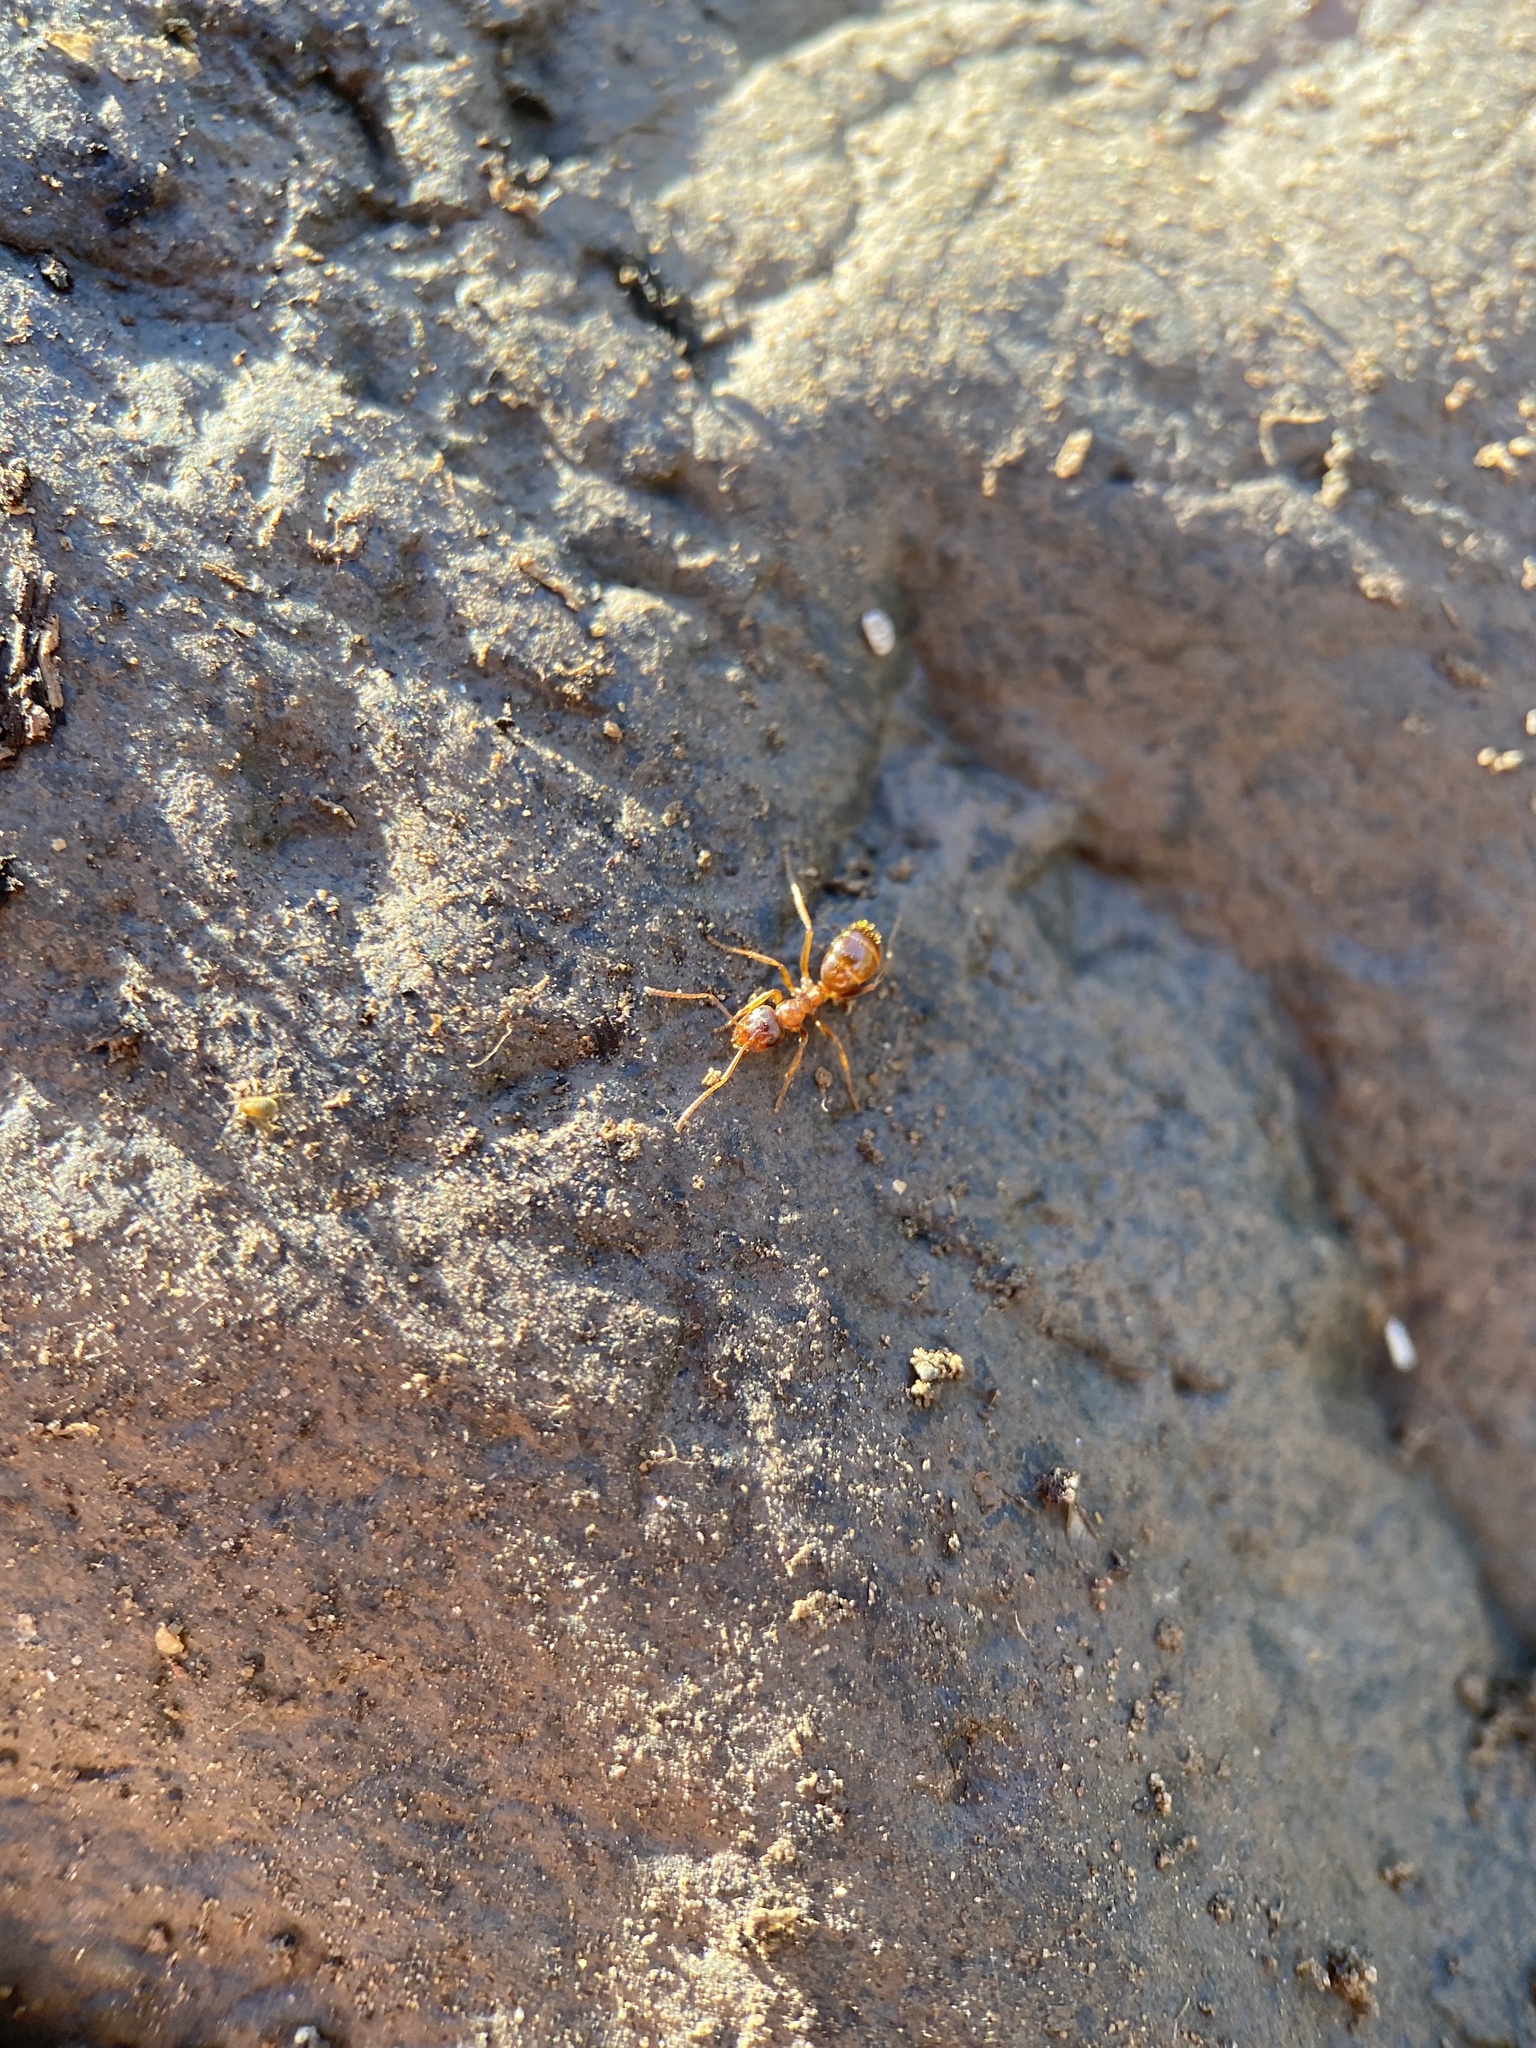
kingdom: Animalia
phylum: Arthropoda
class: Insecta
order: Hymenoptera
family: Formicidae
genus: Formica
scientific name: Formica subpolita
